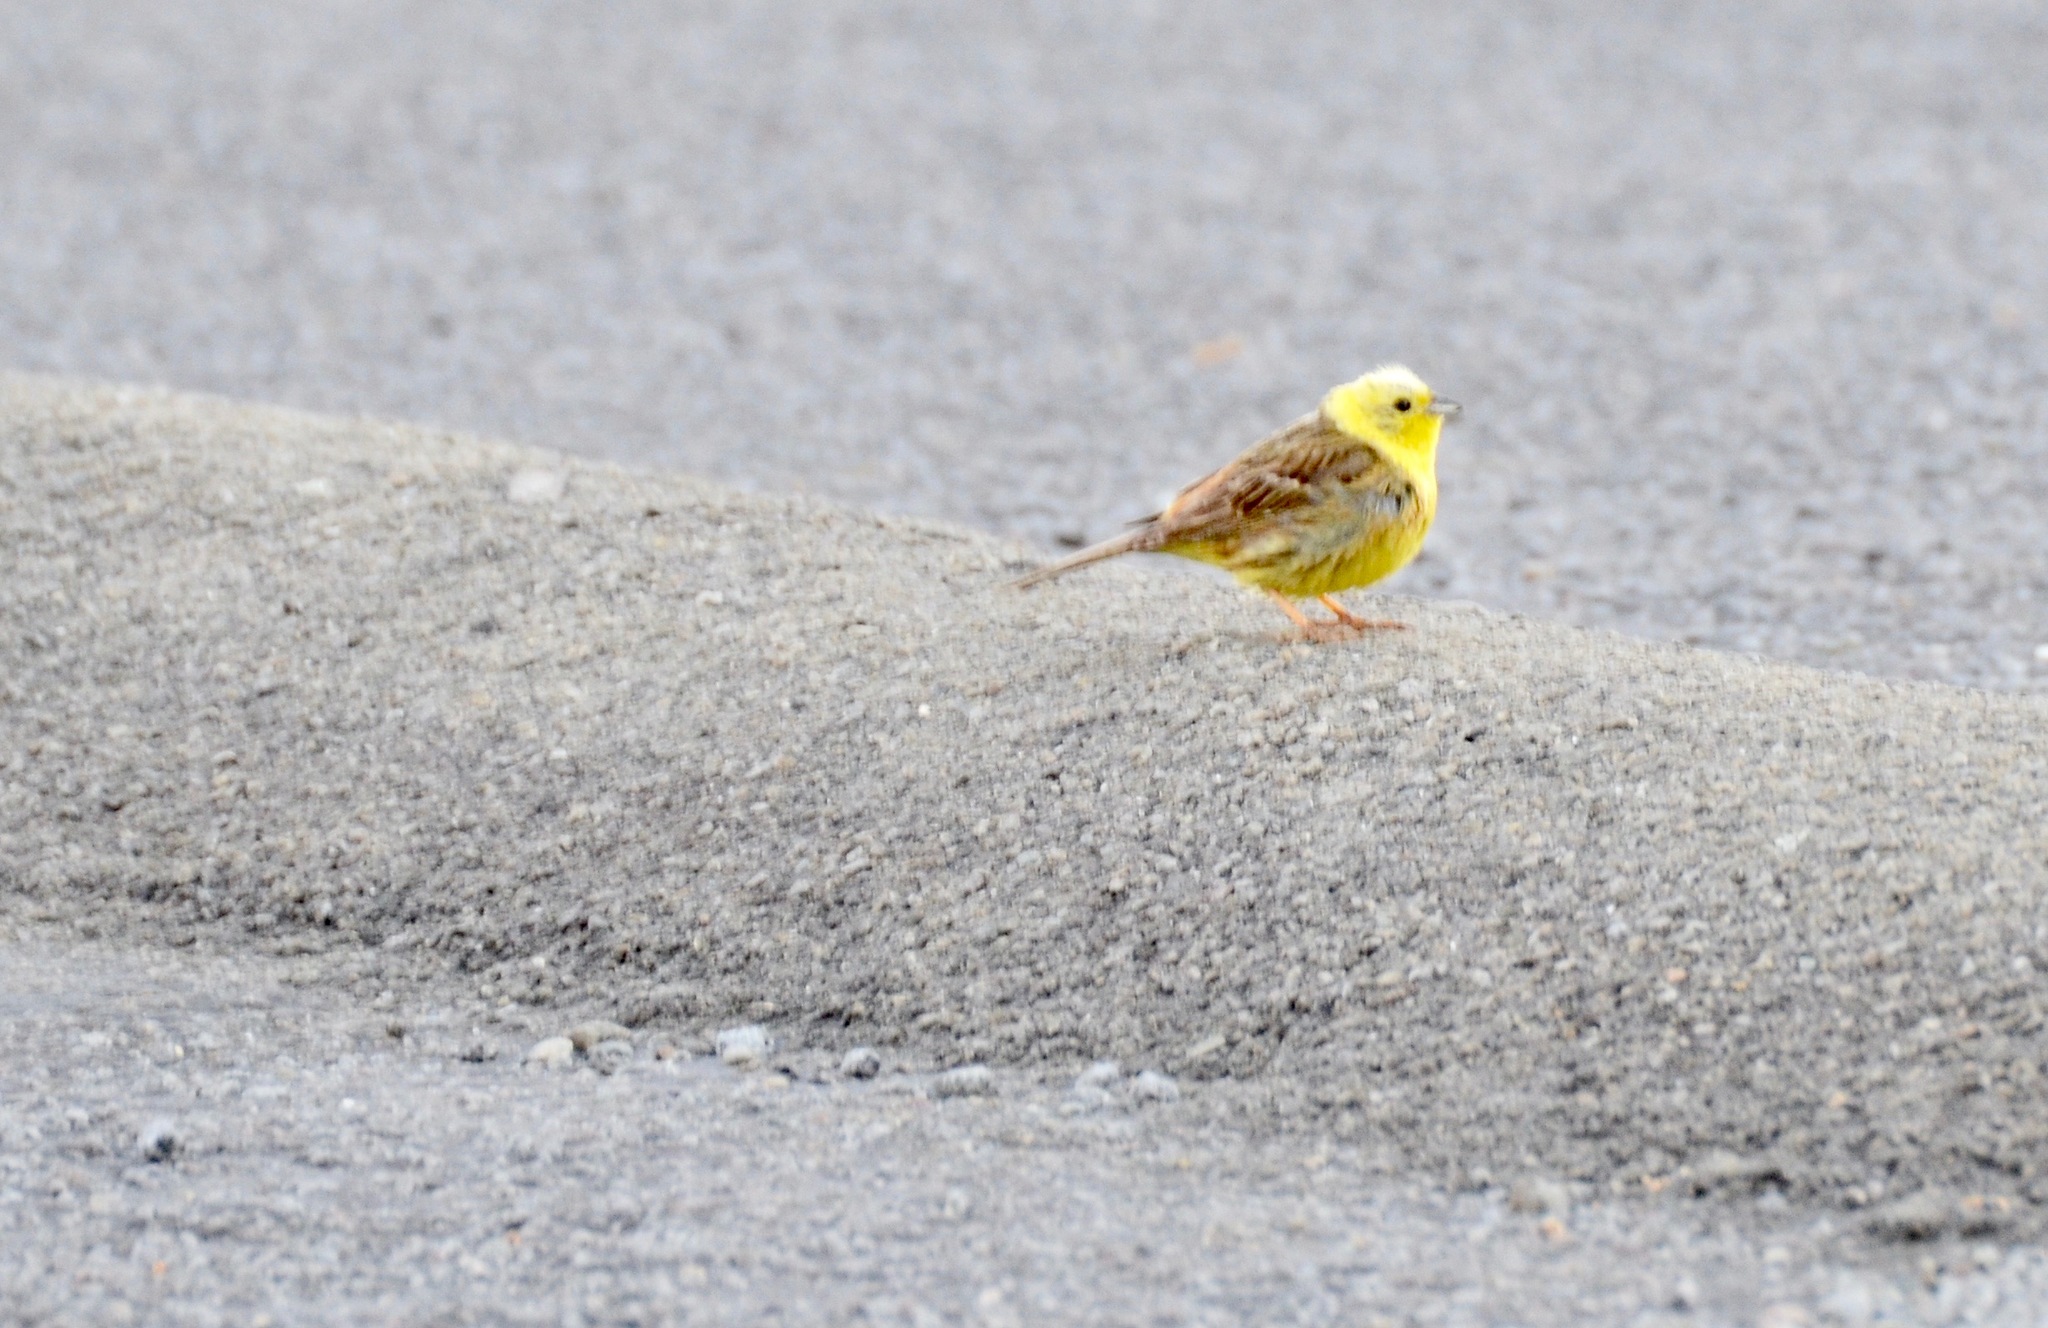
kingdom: Animalia
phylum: Chordata
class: Aves
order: Passeriformes
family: Emberizidae
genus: Emberiza
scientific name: Emberiza citrinella
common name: Yellowhammer
